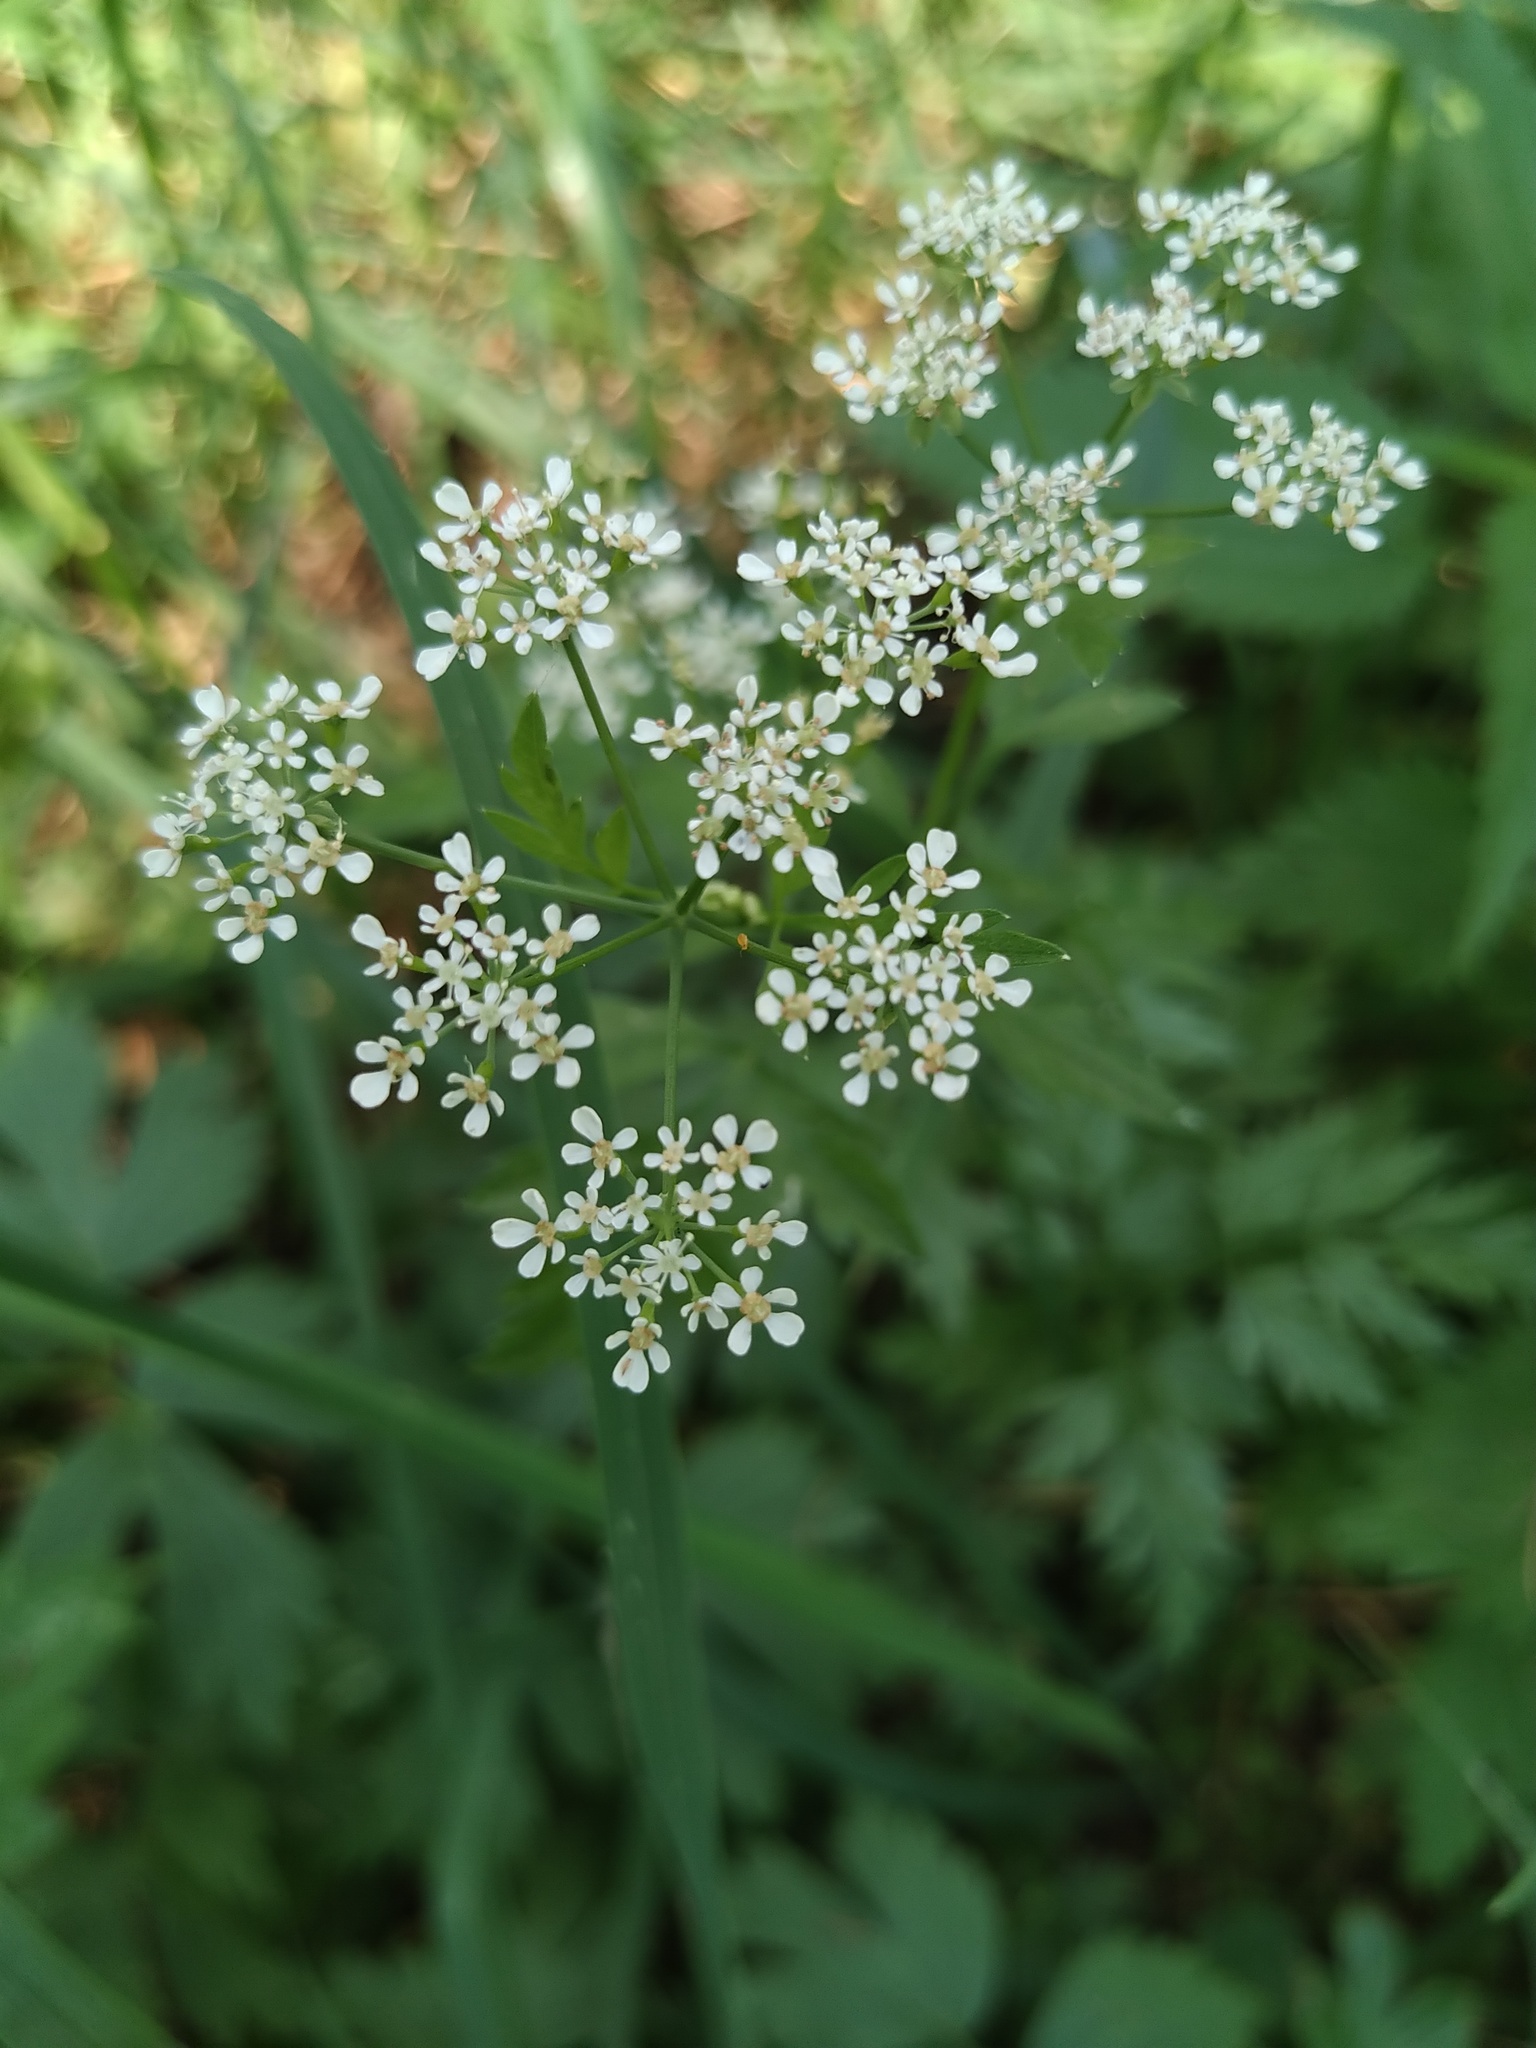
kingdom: Plantae
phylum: Tracheophyta
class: Magnoliopsida
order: Apiales
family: Apiaceae
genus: Anthriscus
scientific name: Anthriscus sylvestris
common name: Cow parsley
